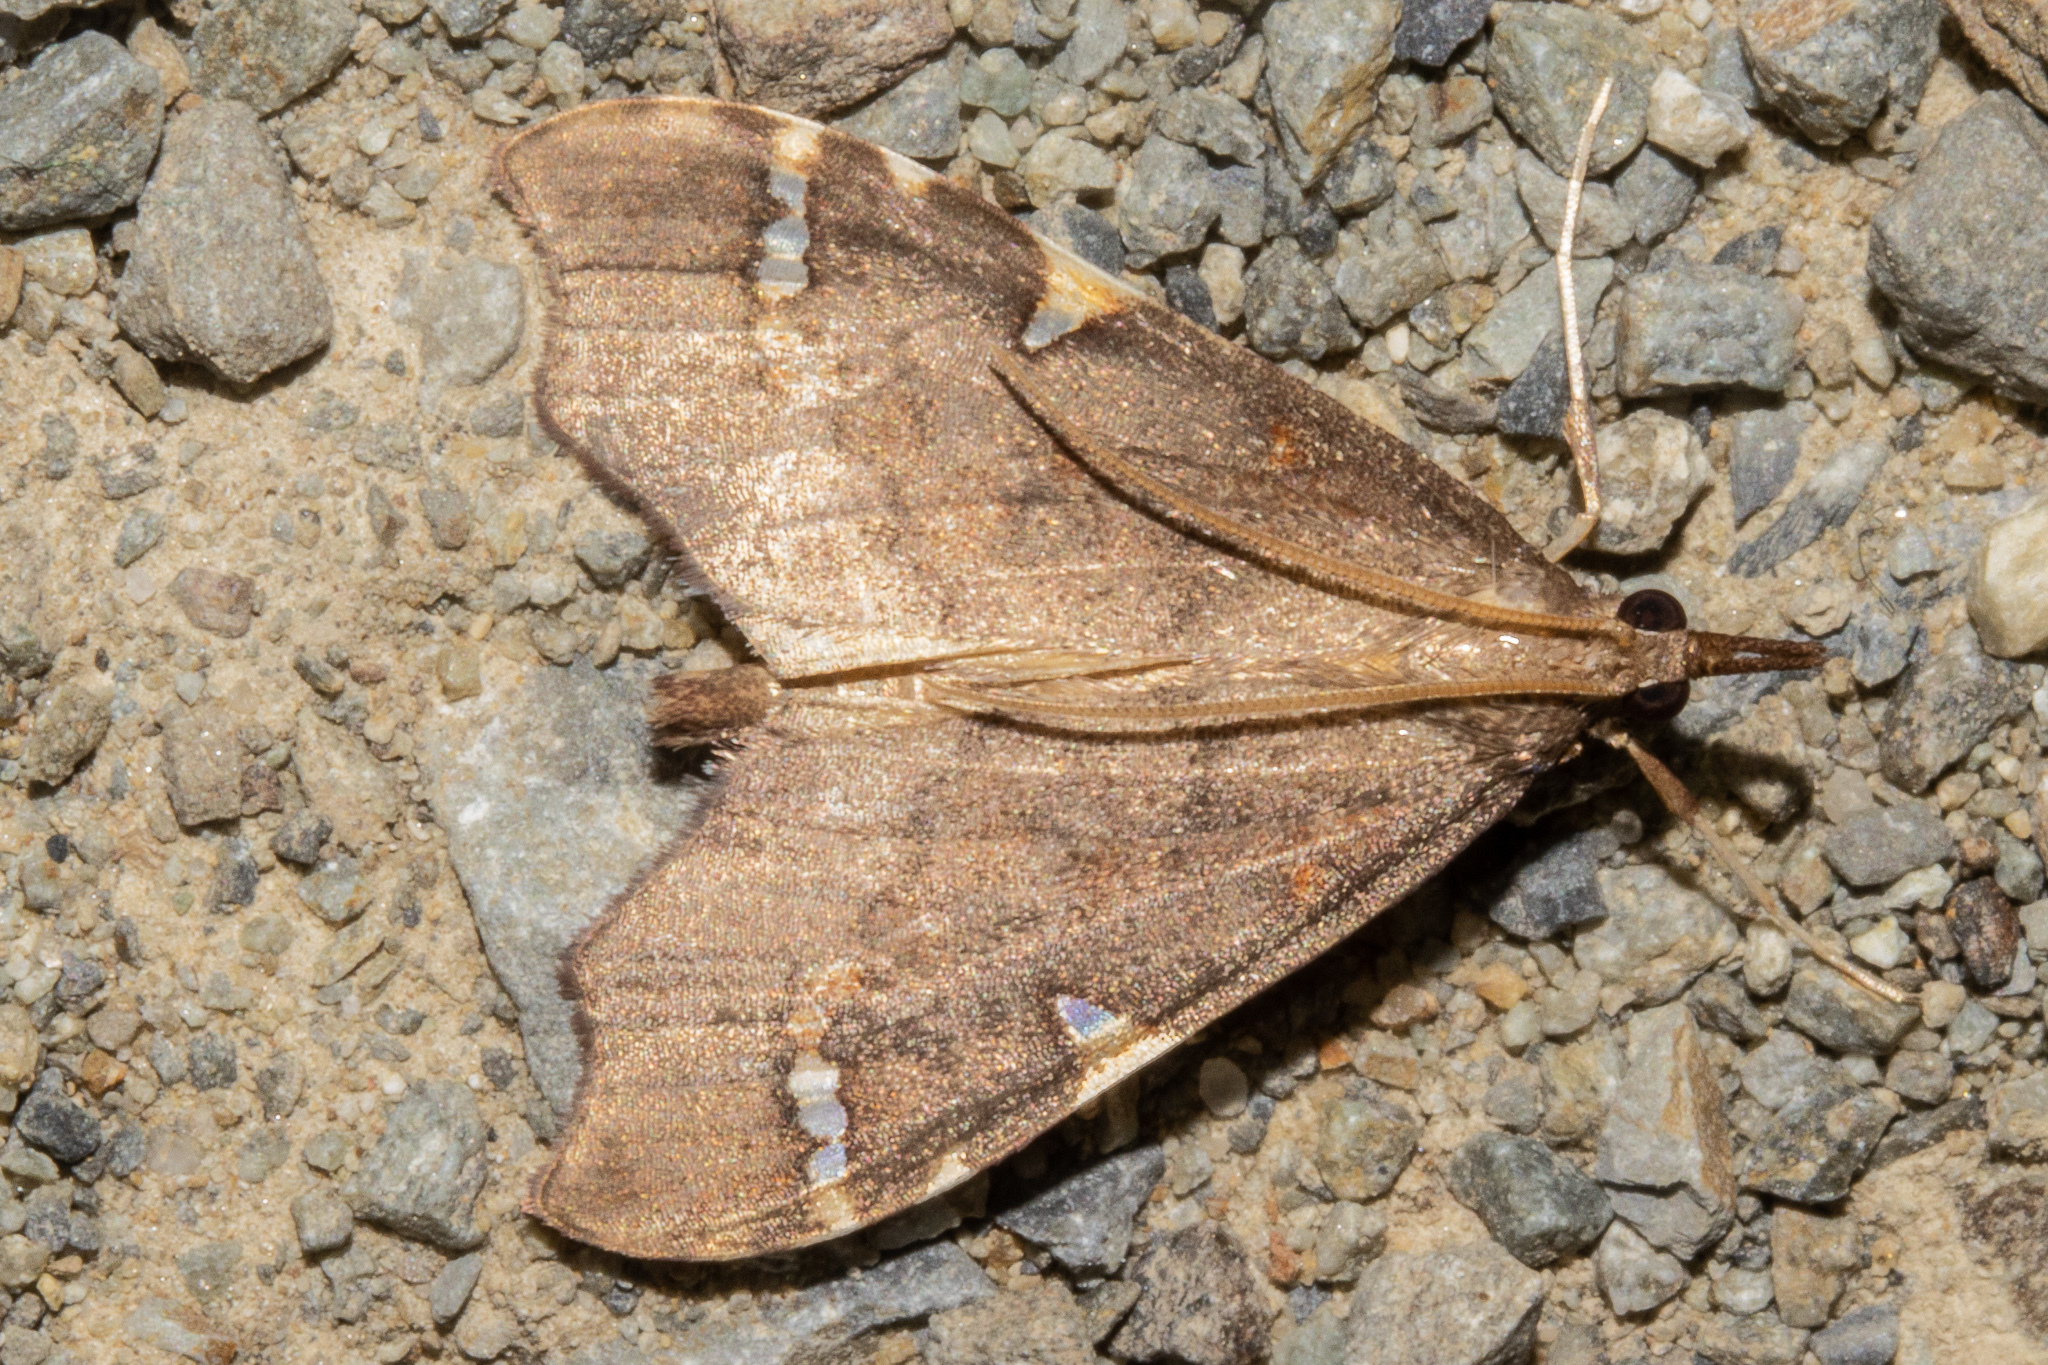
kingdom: Animalia
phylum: Arthropoda
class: Insecta
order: Lepidoptera
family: Crambidae
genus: Deana
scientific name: Deana hybreasalis
